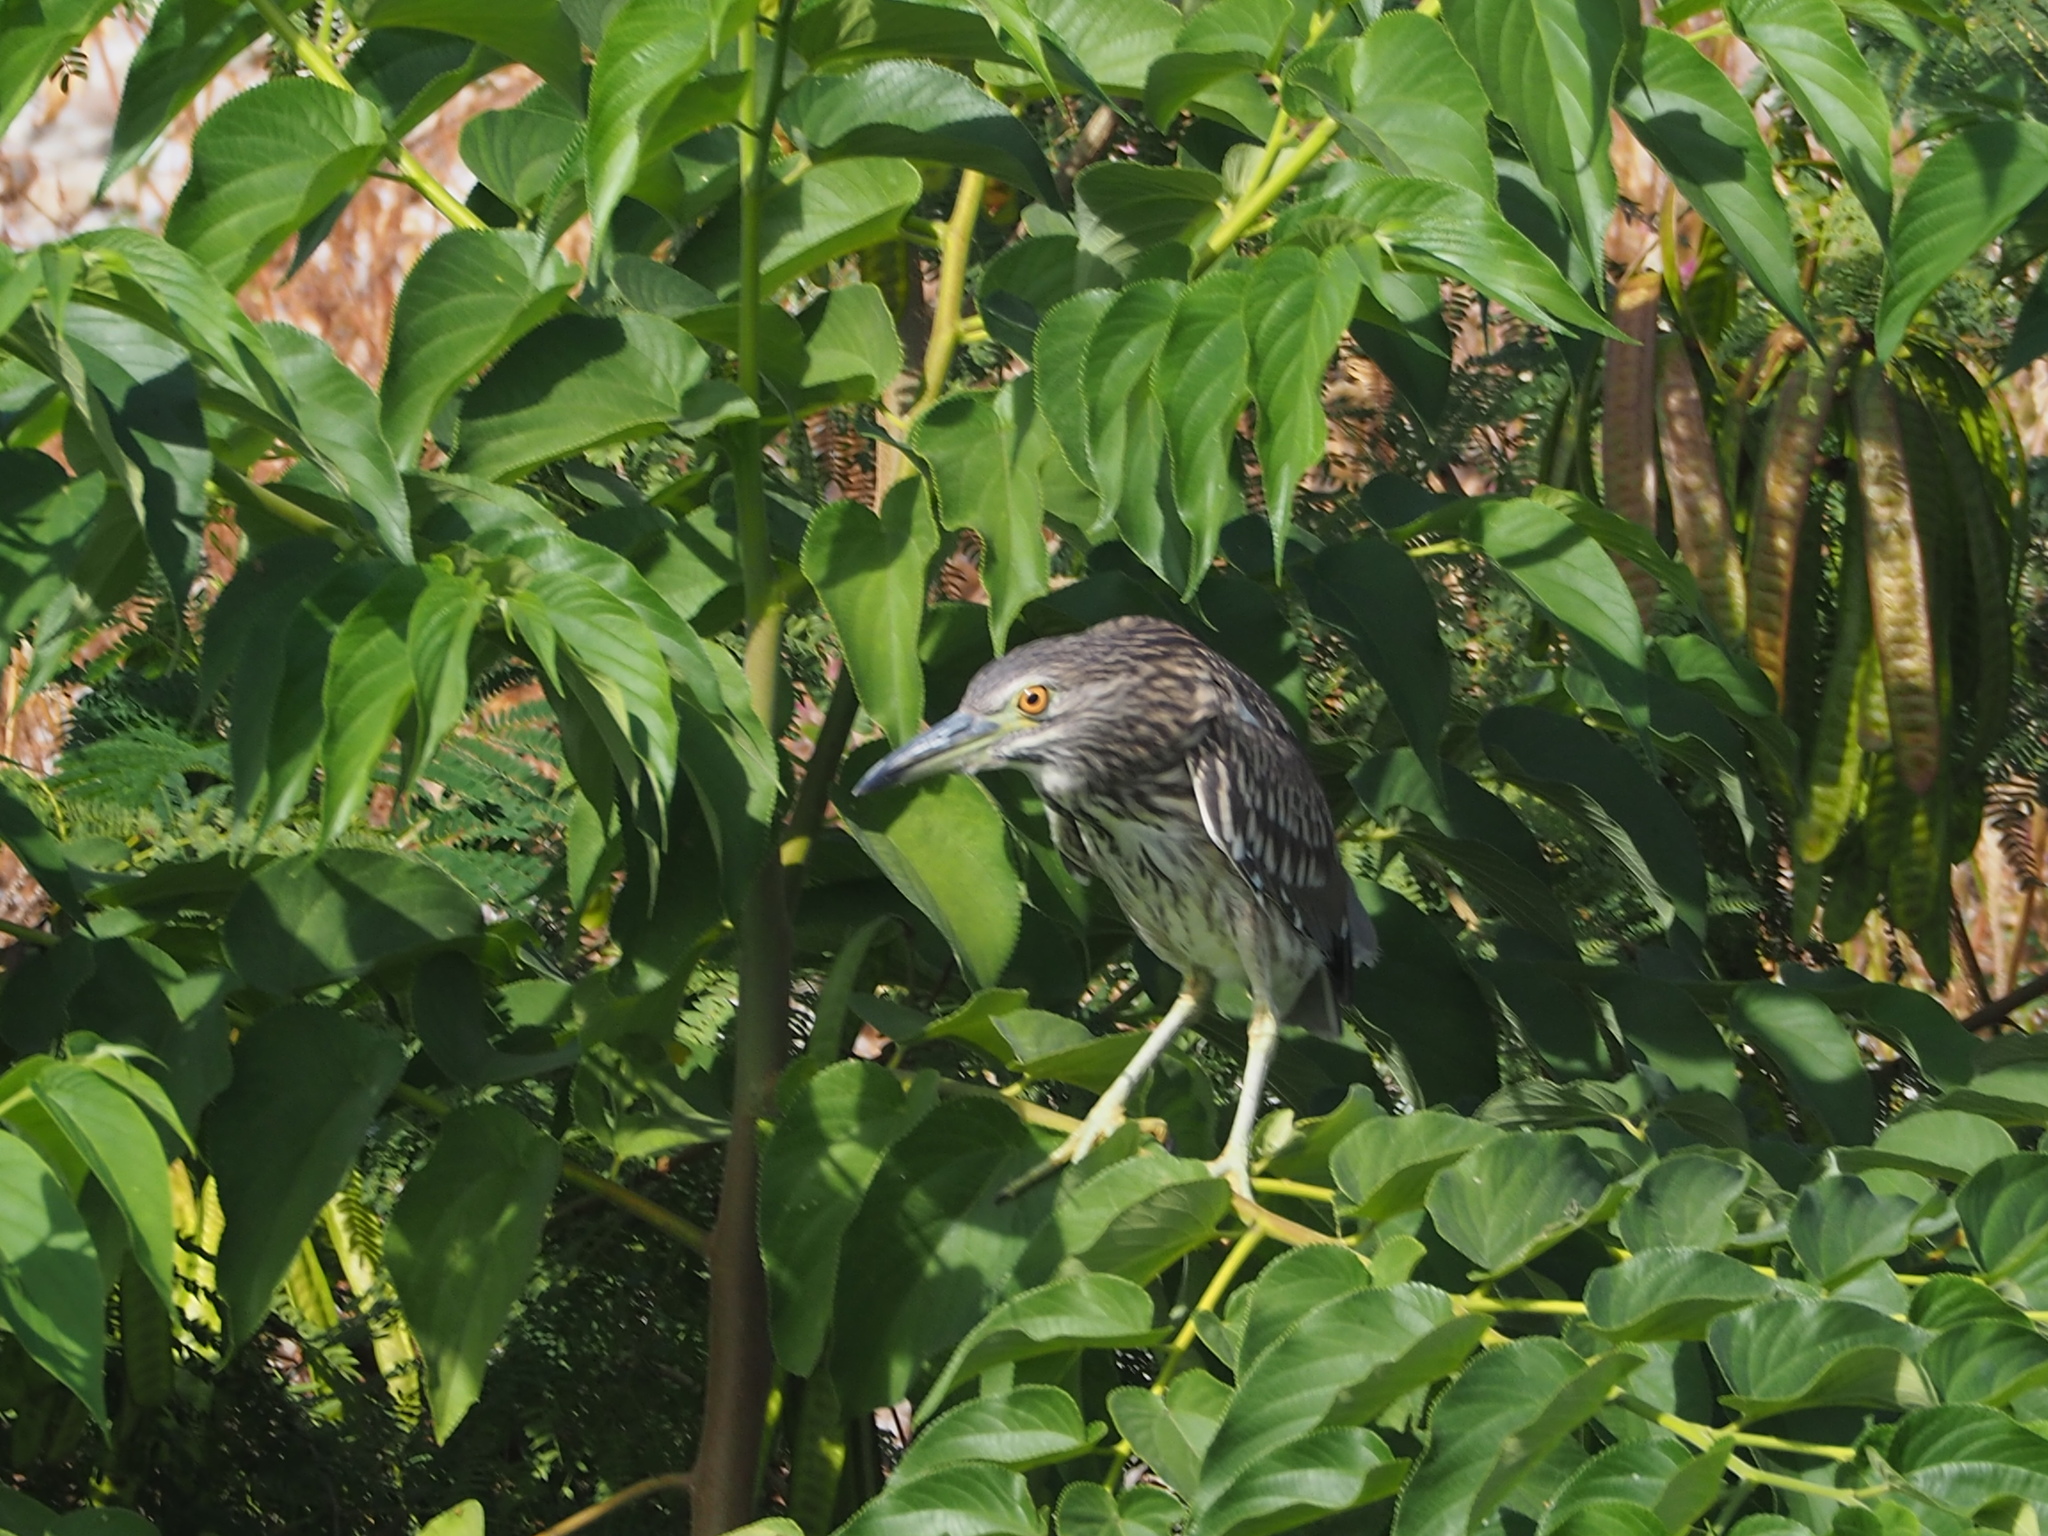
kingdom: Animalia
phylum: Chordata
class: Aves
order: Pelecaniformes
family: Ardeidae
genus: Nycticorax
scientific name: Nycticorax nycticorax
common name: Black-crowned night heron
